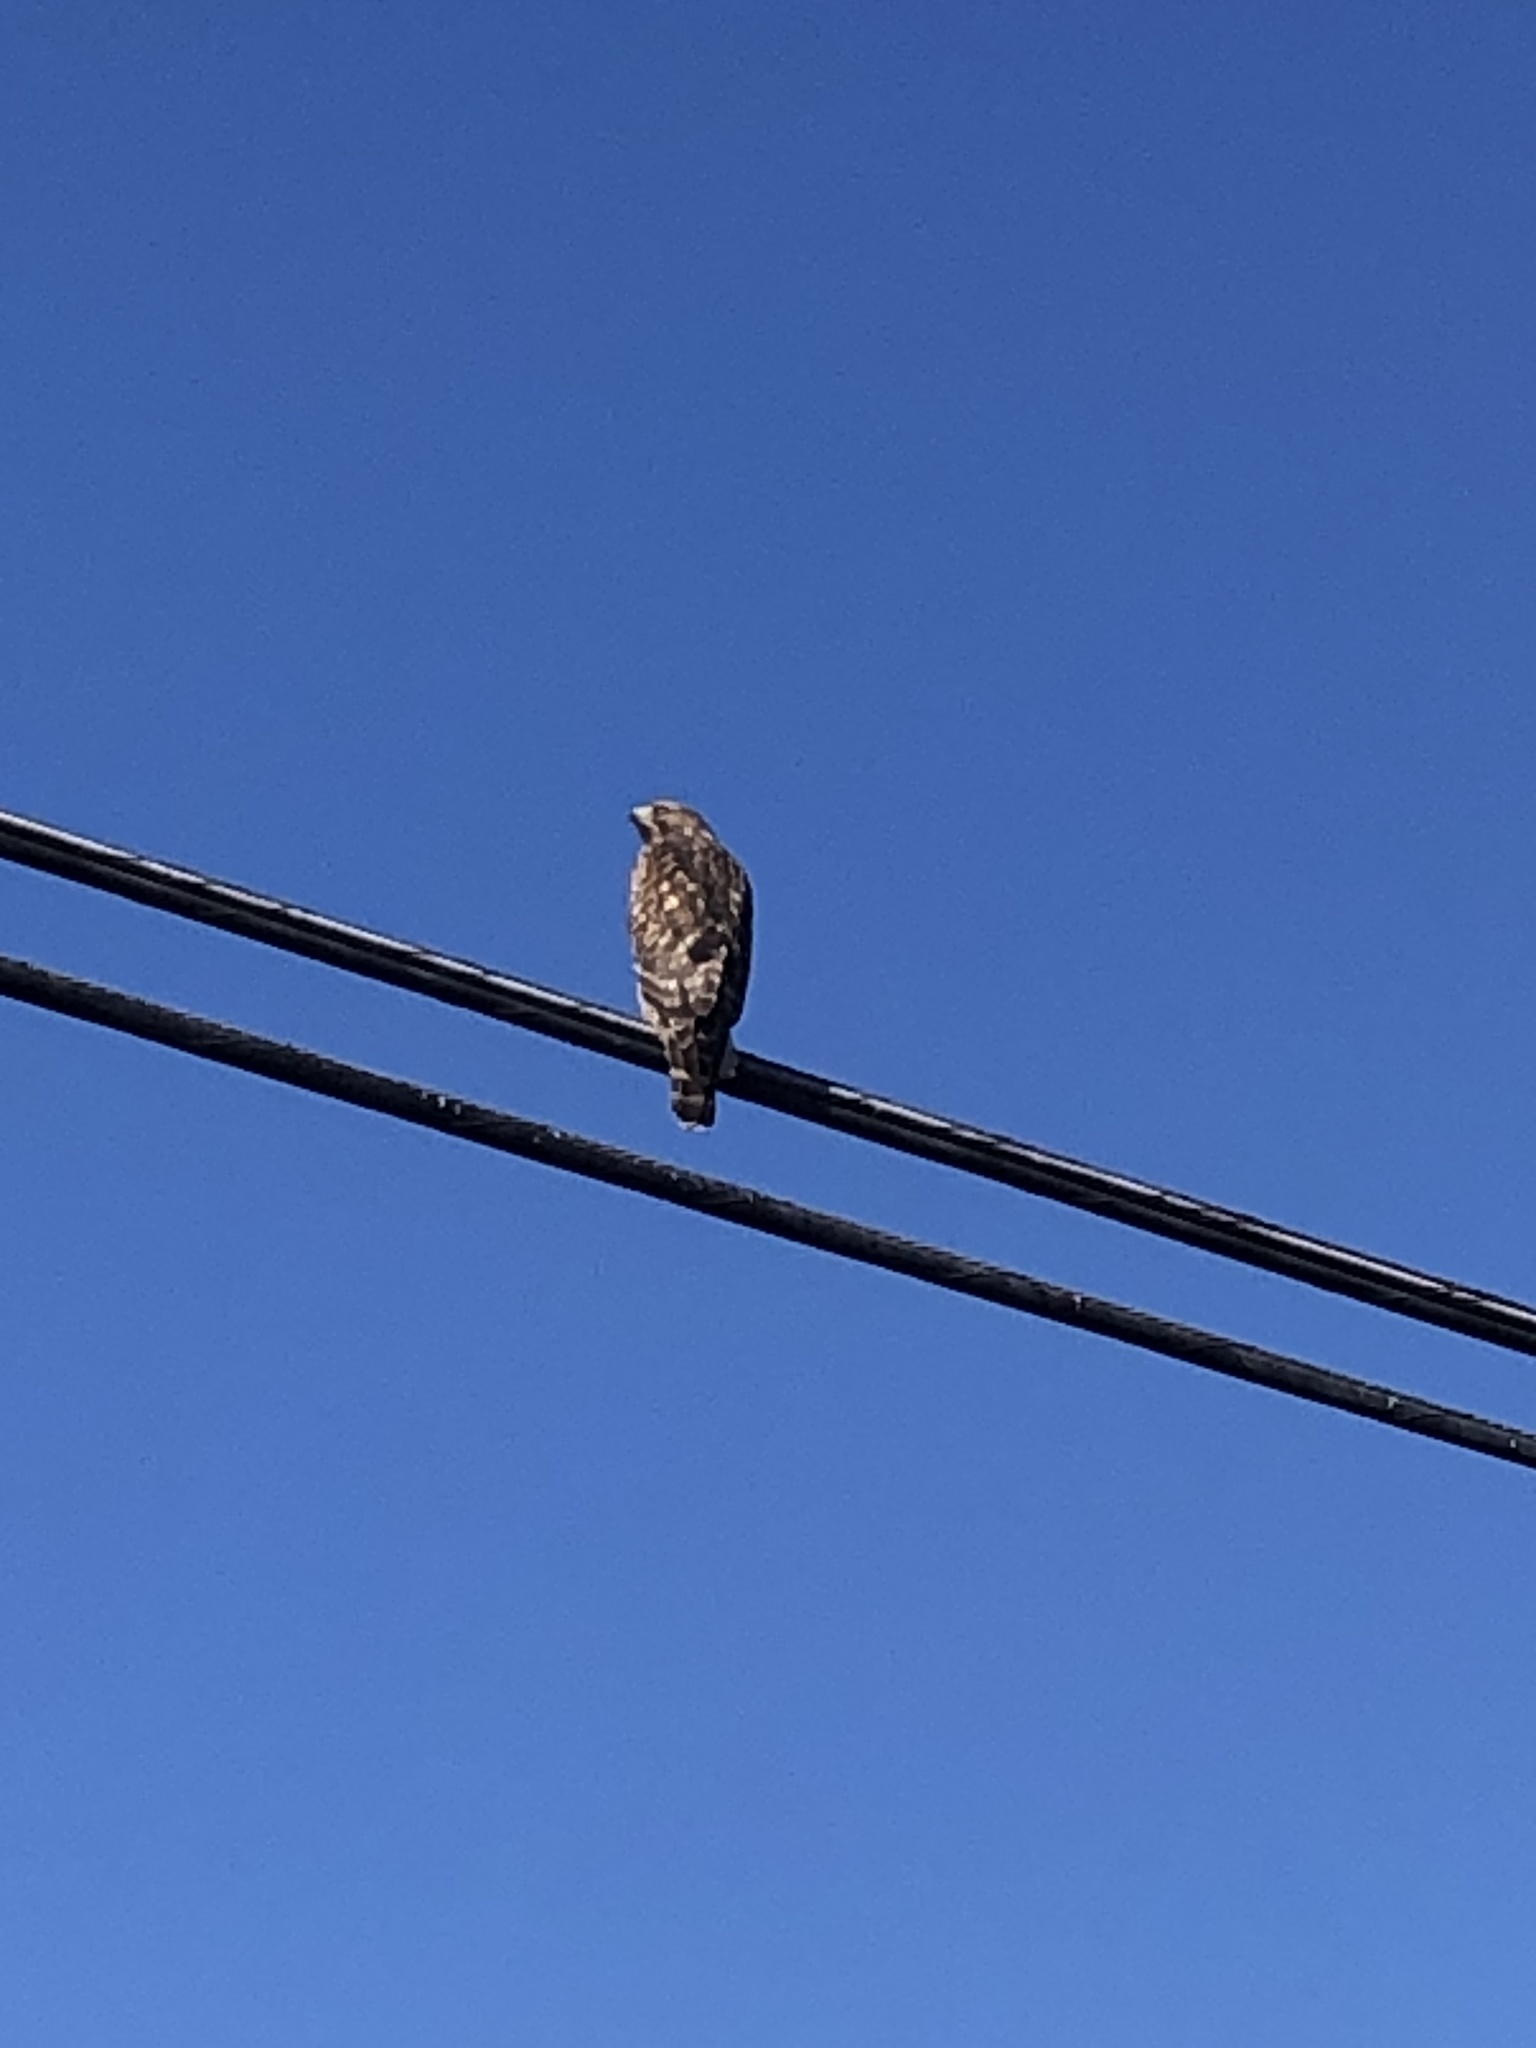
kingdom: Animalia
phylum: Chordata
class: Aves
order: Accipitriformes
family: Accipitridae
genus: Buteo
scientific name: Buteo lineatus
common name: Red-shouldered hawk
